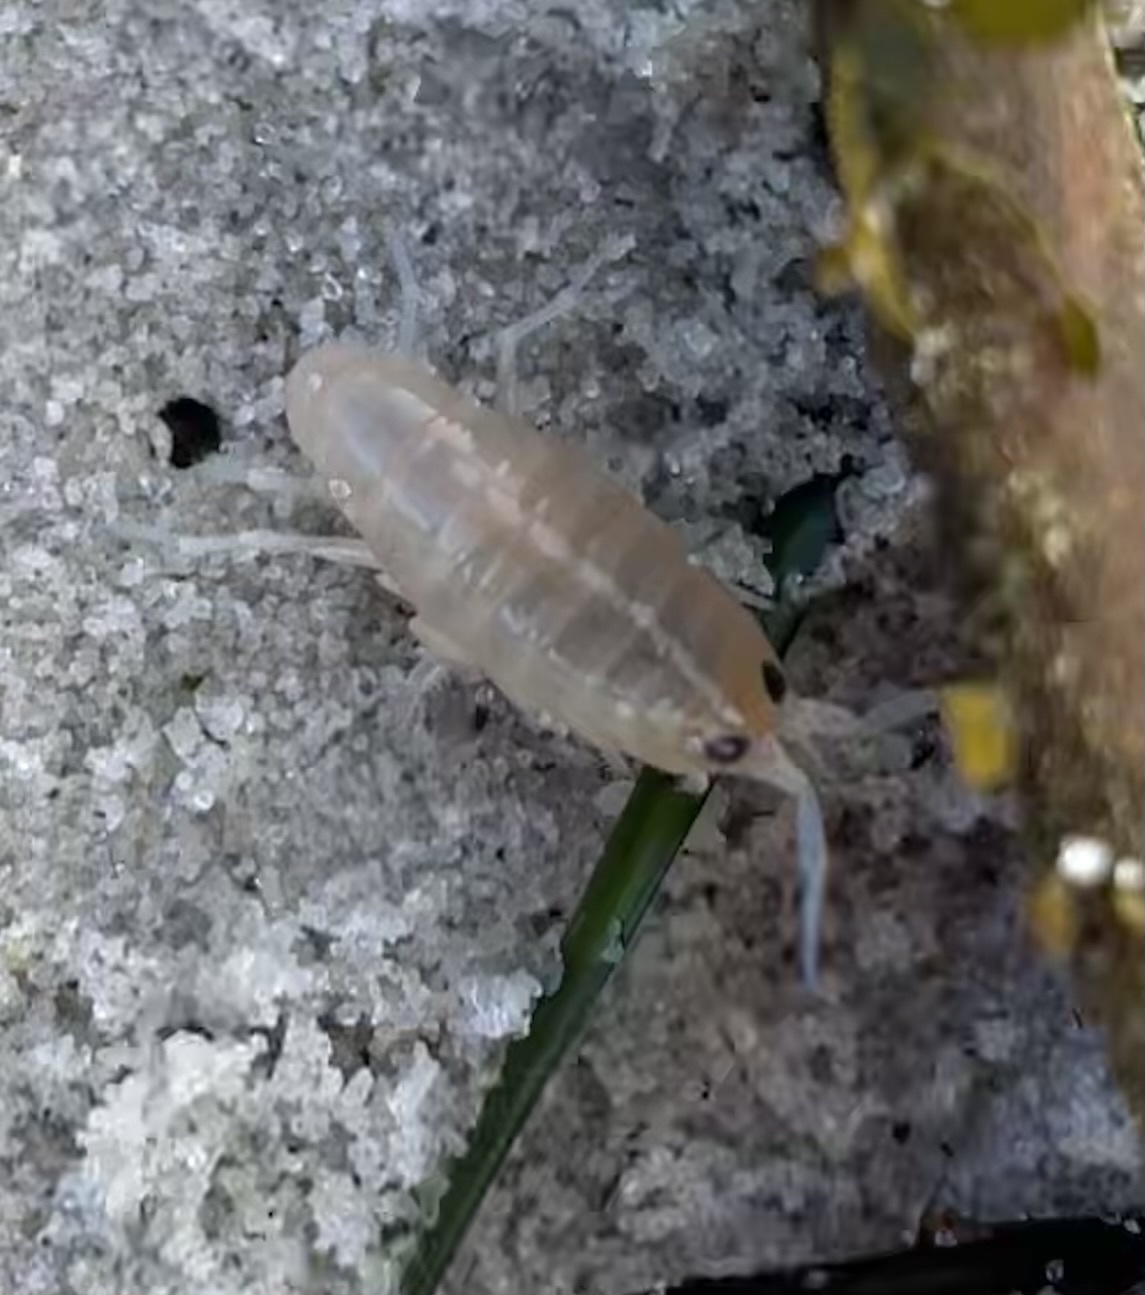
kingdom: Animalia
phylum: Arthropoda
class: Malacostraca
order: Amphipoda
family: Talitridae
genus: Megalorchestia
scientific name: Megalorchestia corniculata
